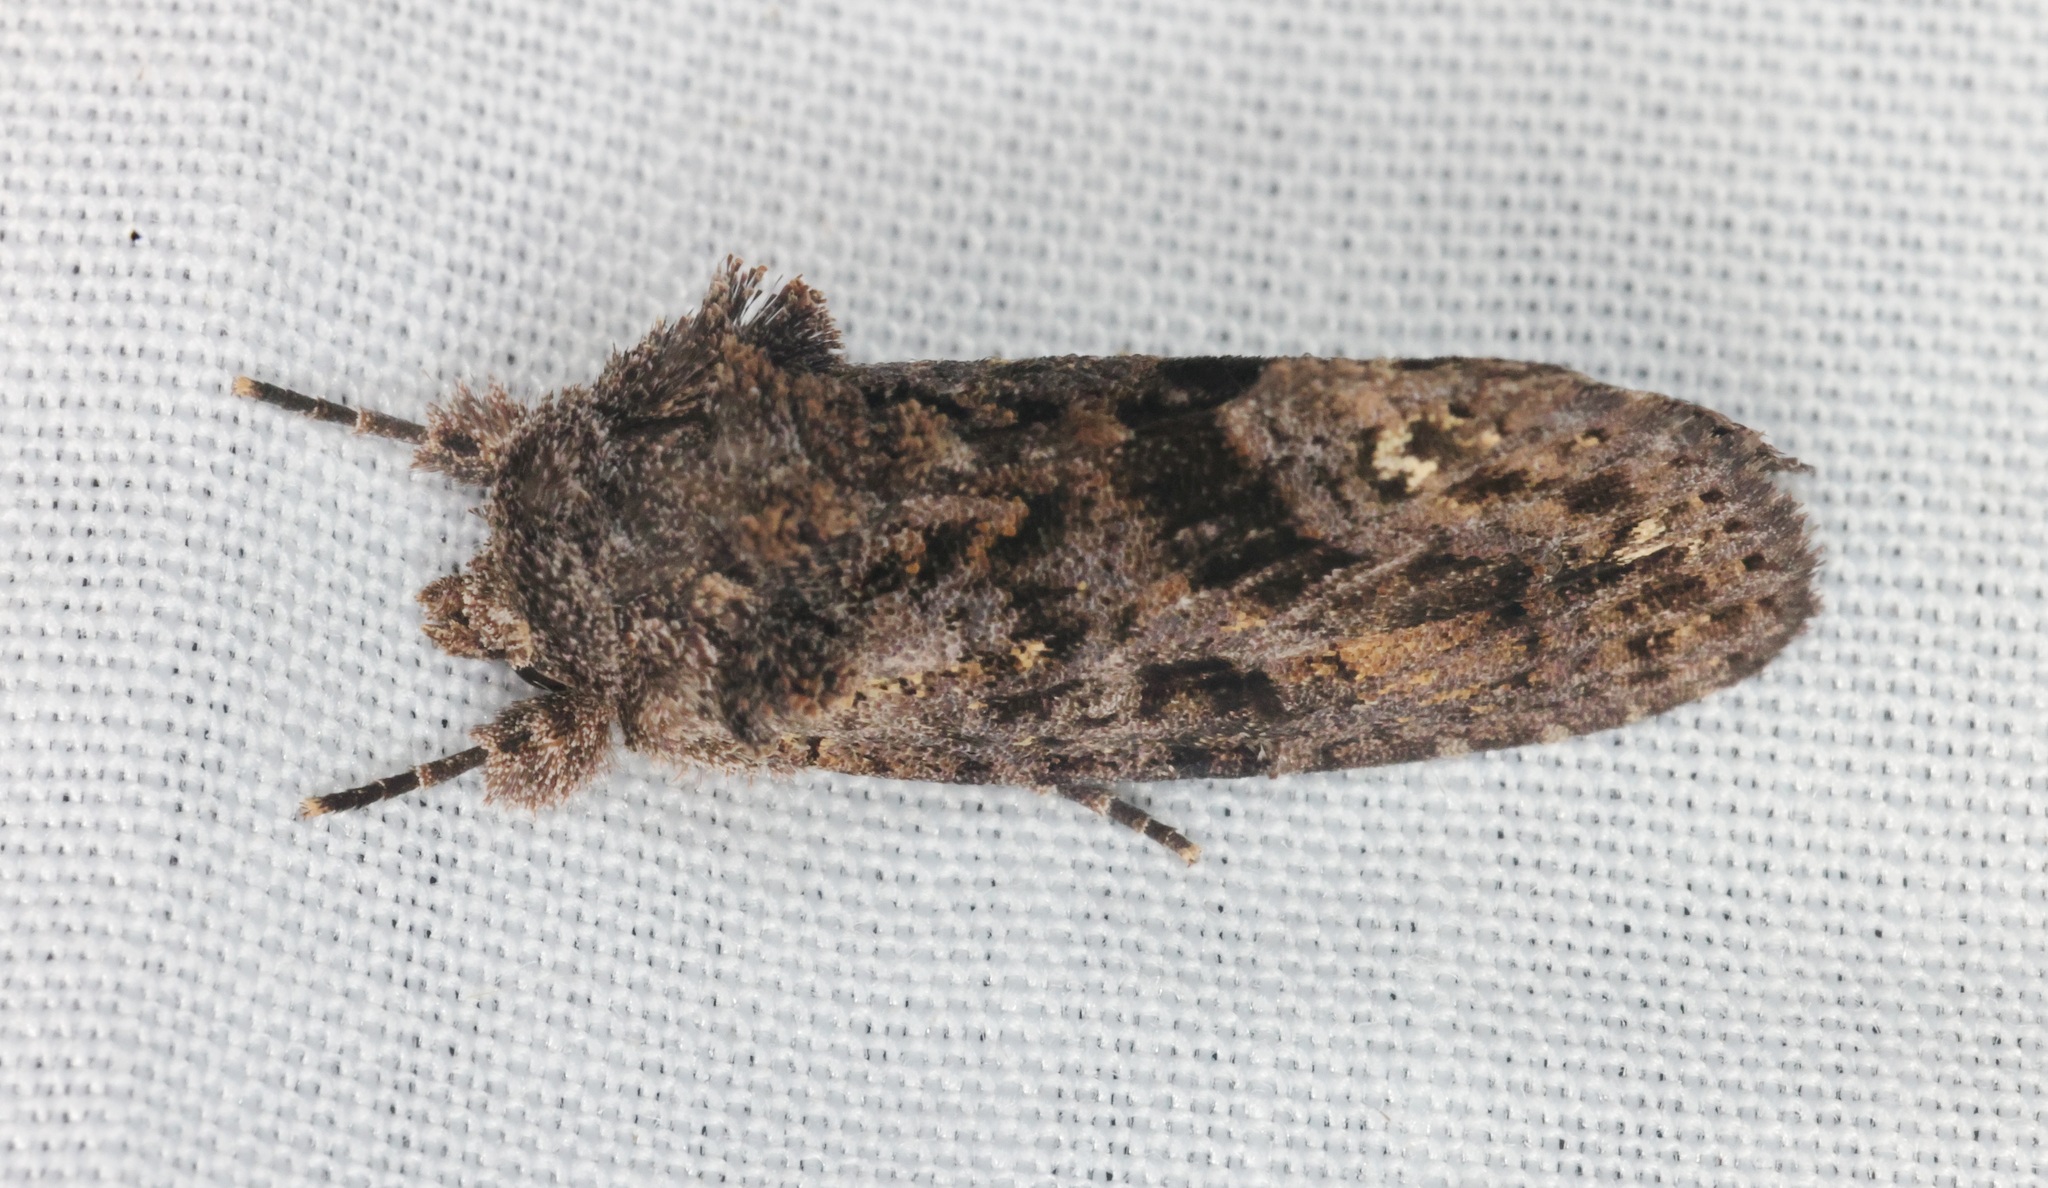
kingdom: Animalia
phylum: Arthropoda
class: Insecta
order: Lepidoptera
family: Noctuidae
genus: Paradiopa
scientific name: Paradiopa postfusca
